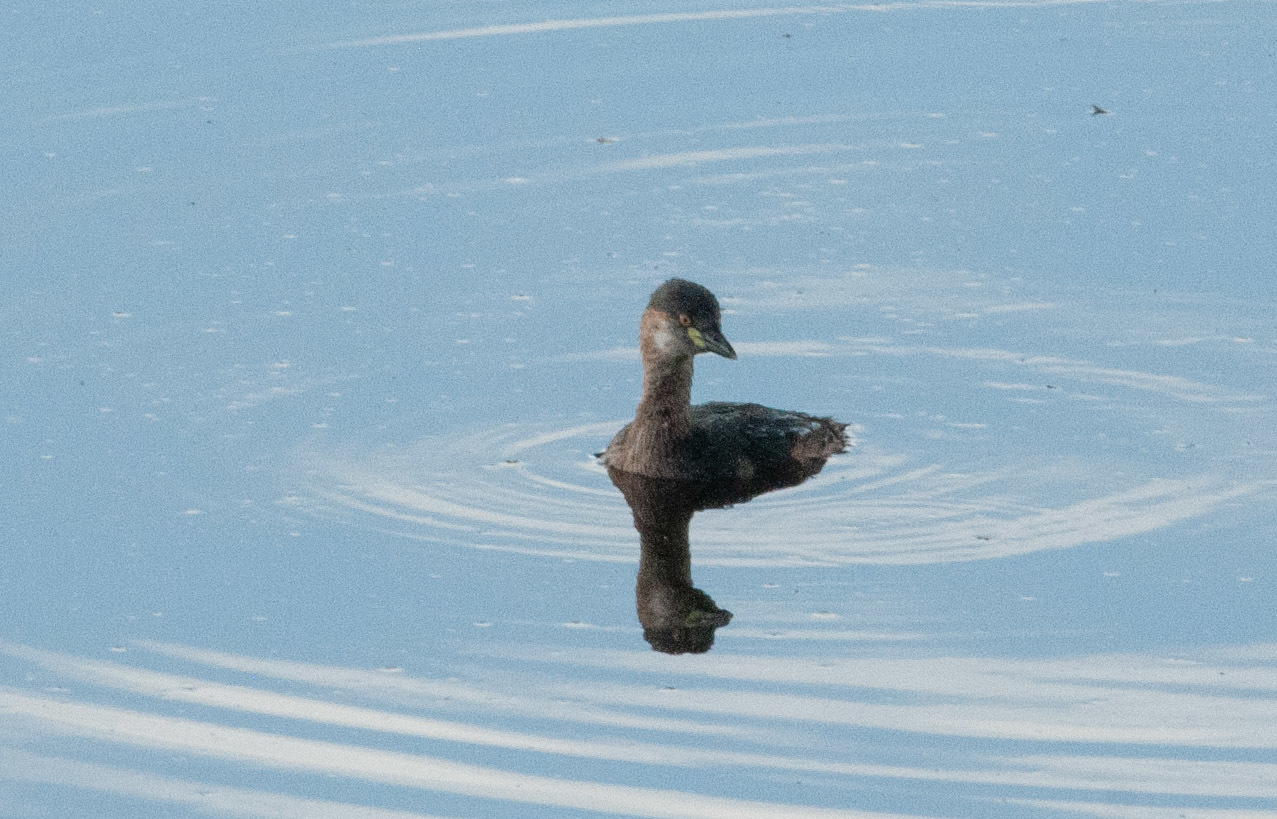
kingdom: Animalia
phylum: Chordata
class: Aves
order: Podicipediformes
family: Podicipedidae
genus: Tachybaptus
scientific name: Tachybaptus novaehollandiae
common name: Australasian grebe
